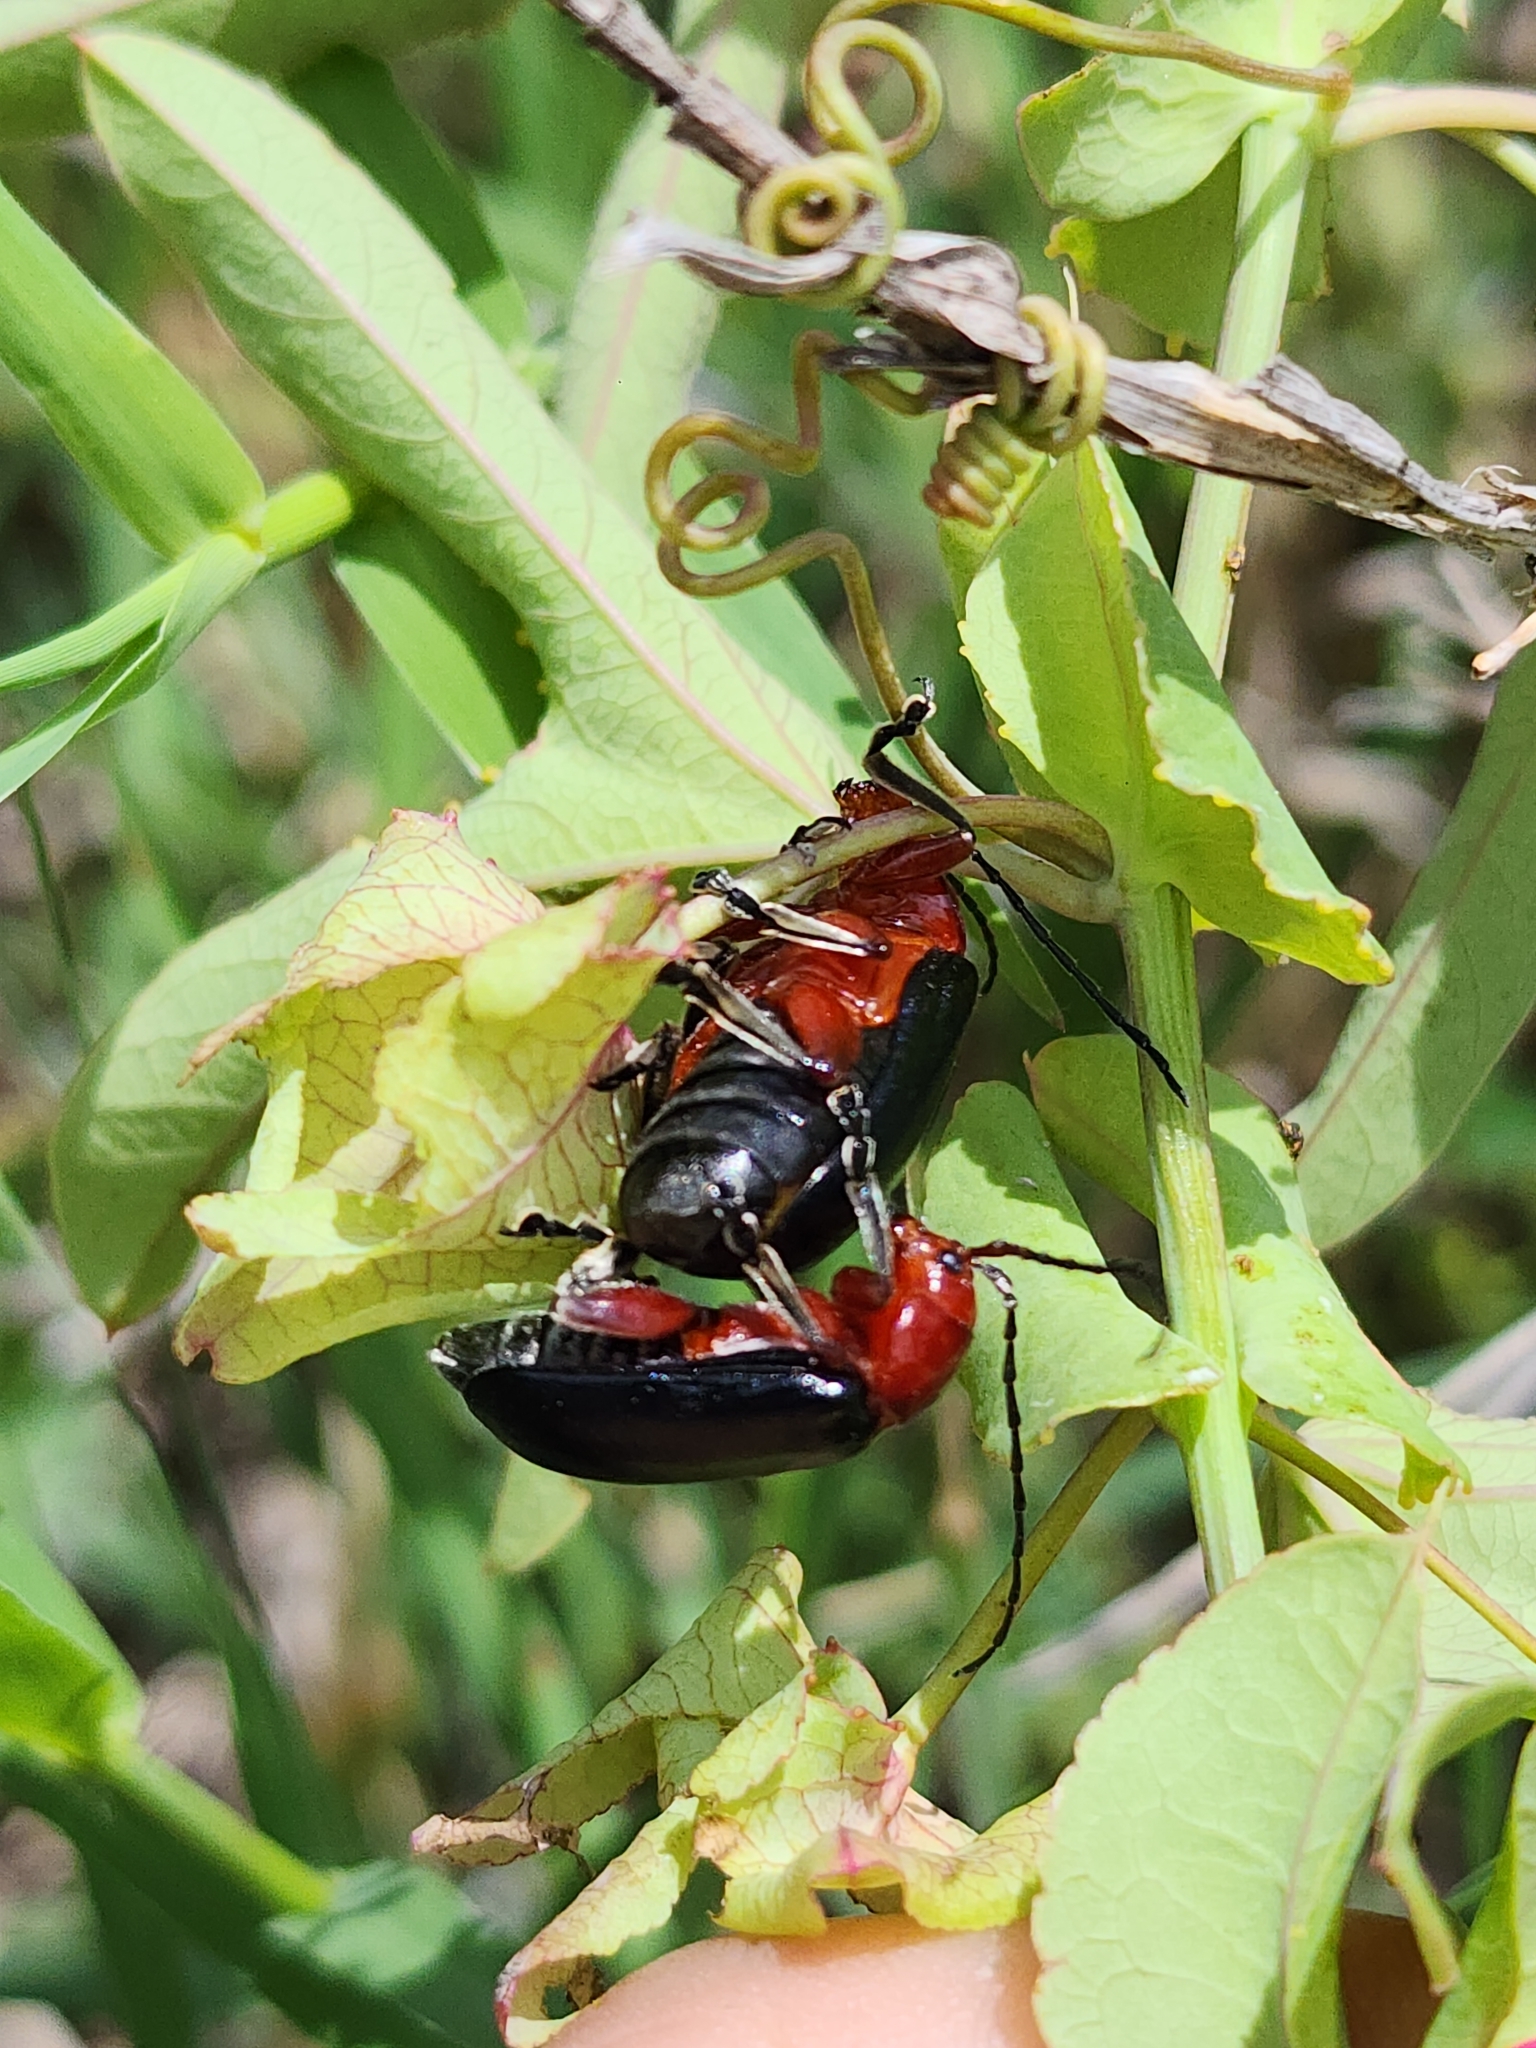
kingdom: Animalia
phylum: Arthropoda
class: Insecta
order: Coleoptera
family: Chrysomelidae
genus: Cacoscelis
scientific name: Cacoscelis
